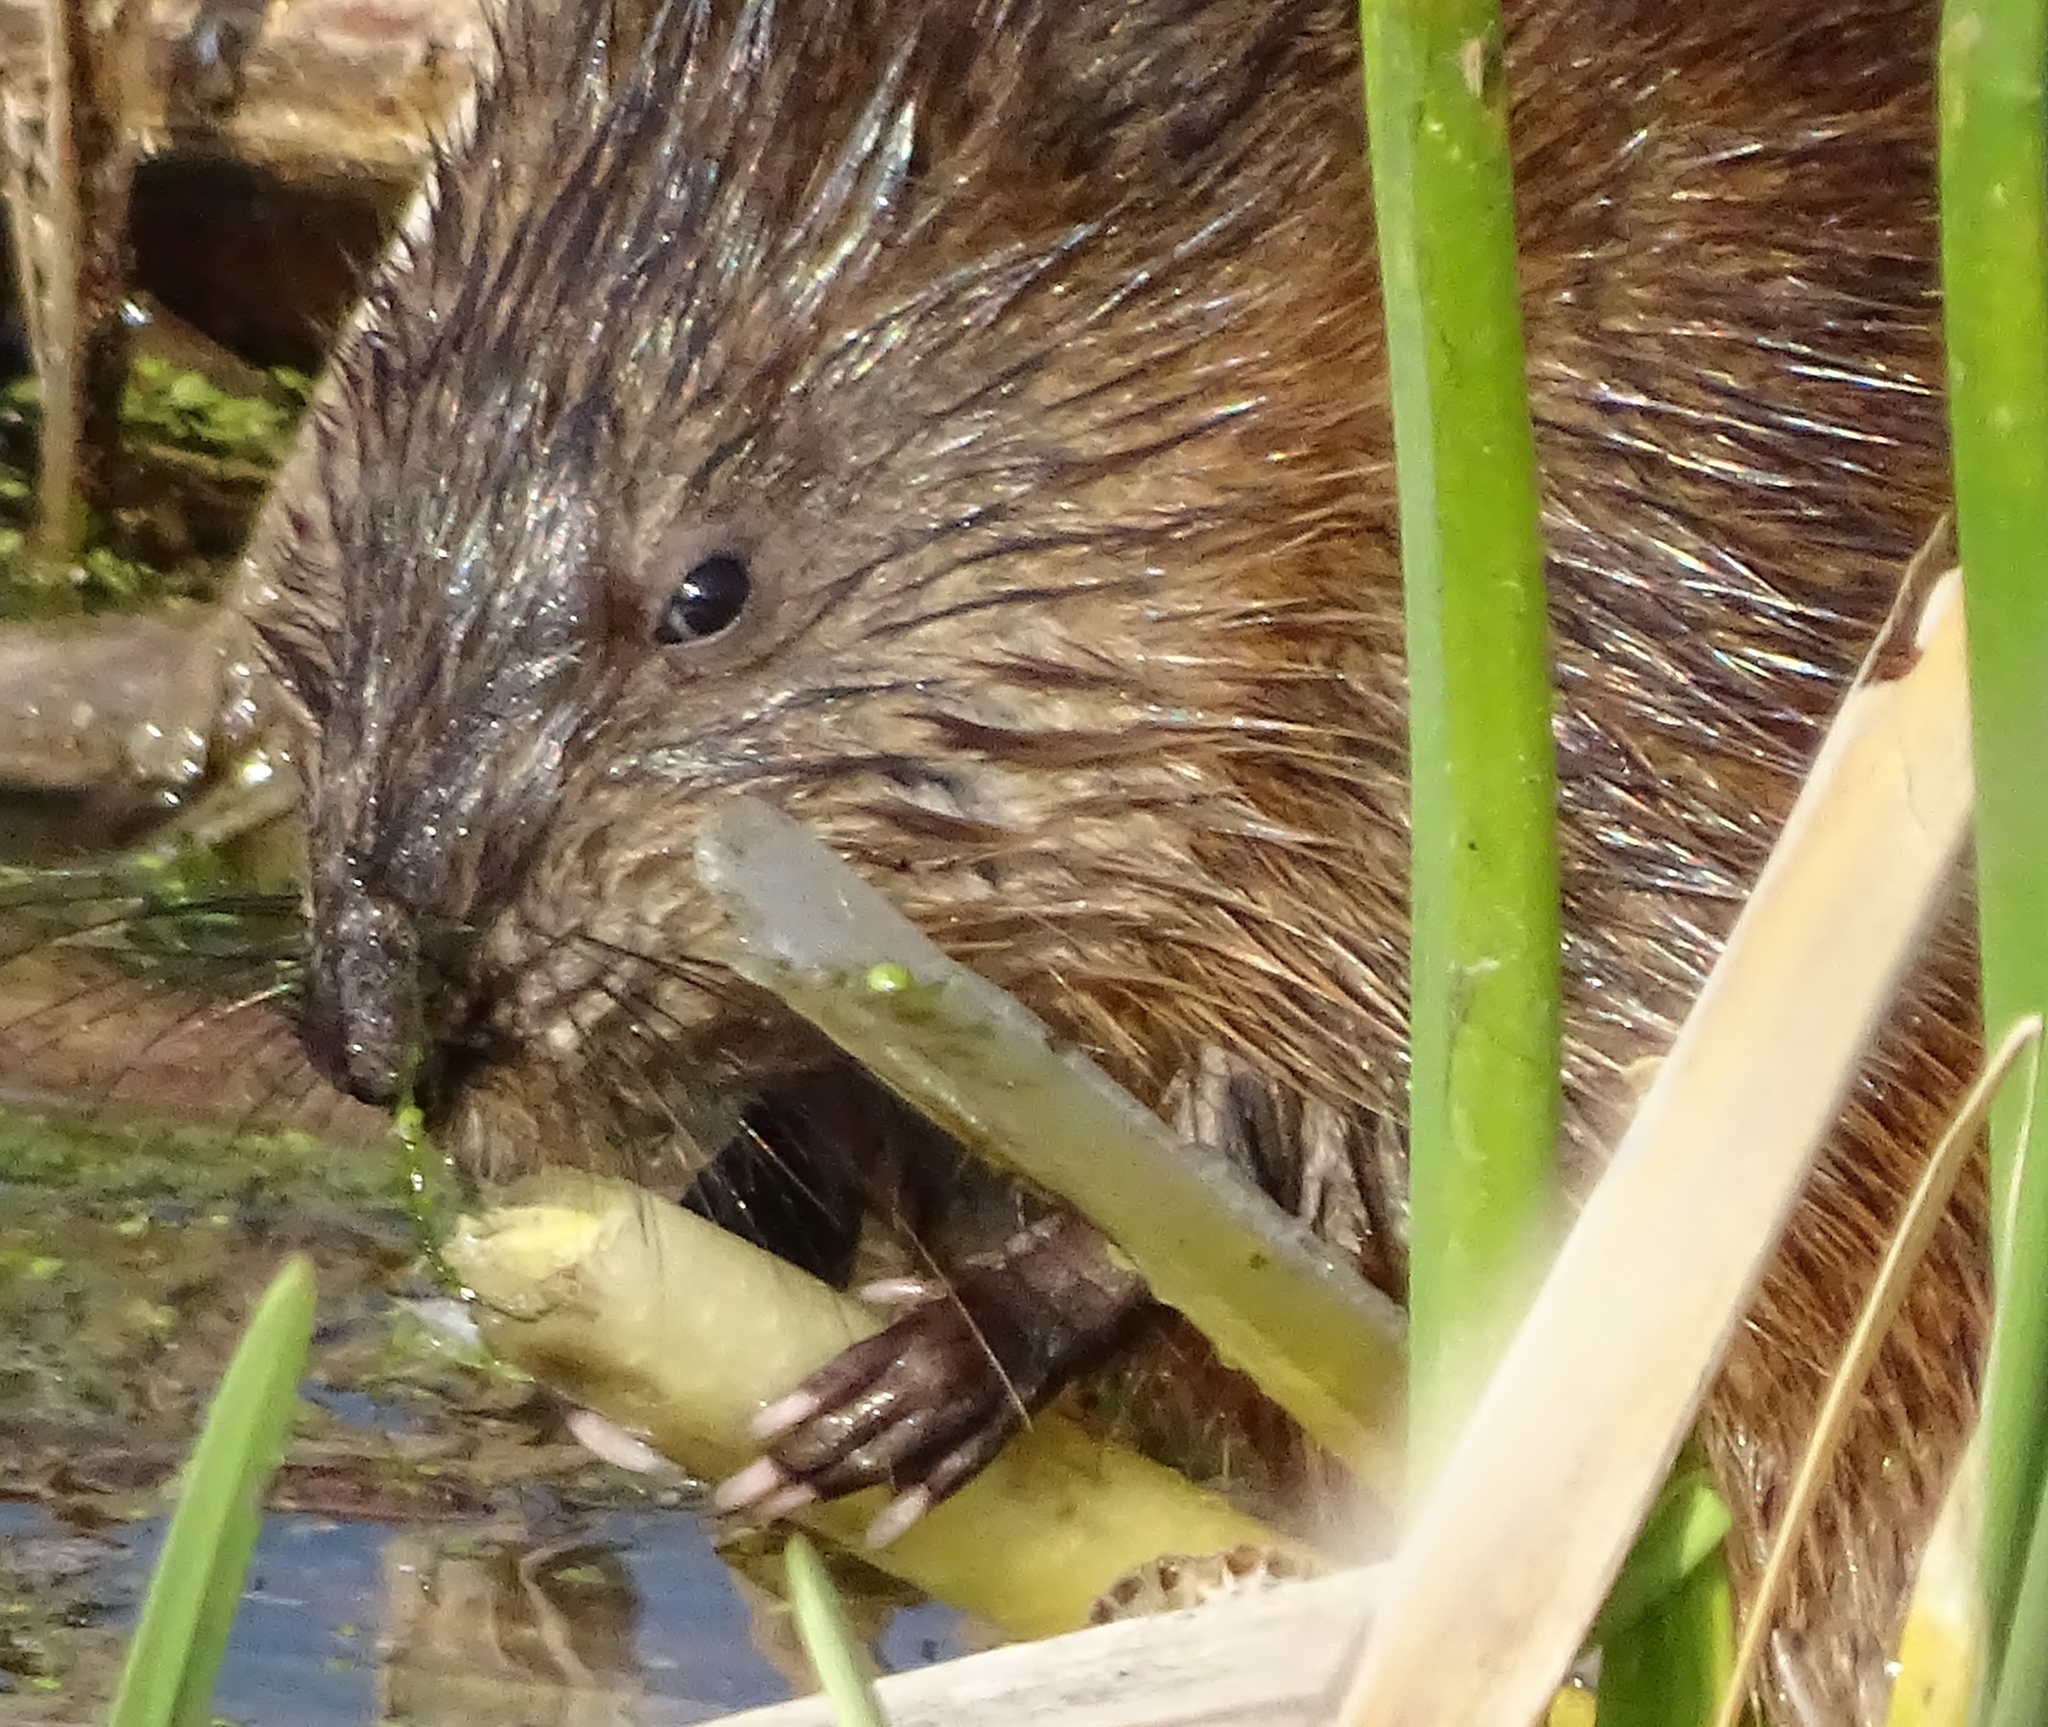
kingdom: Animalia
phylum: Chordata
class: Mammalia
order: Rodentia
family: Cricetidae
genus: Ondatra
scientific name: Ondatra zibethicus
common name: Muskrat
